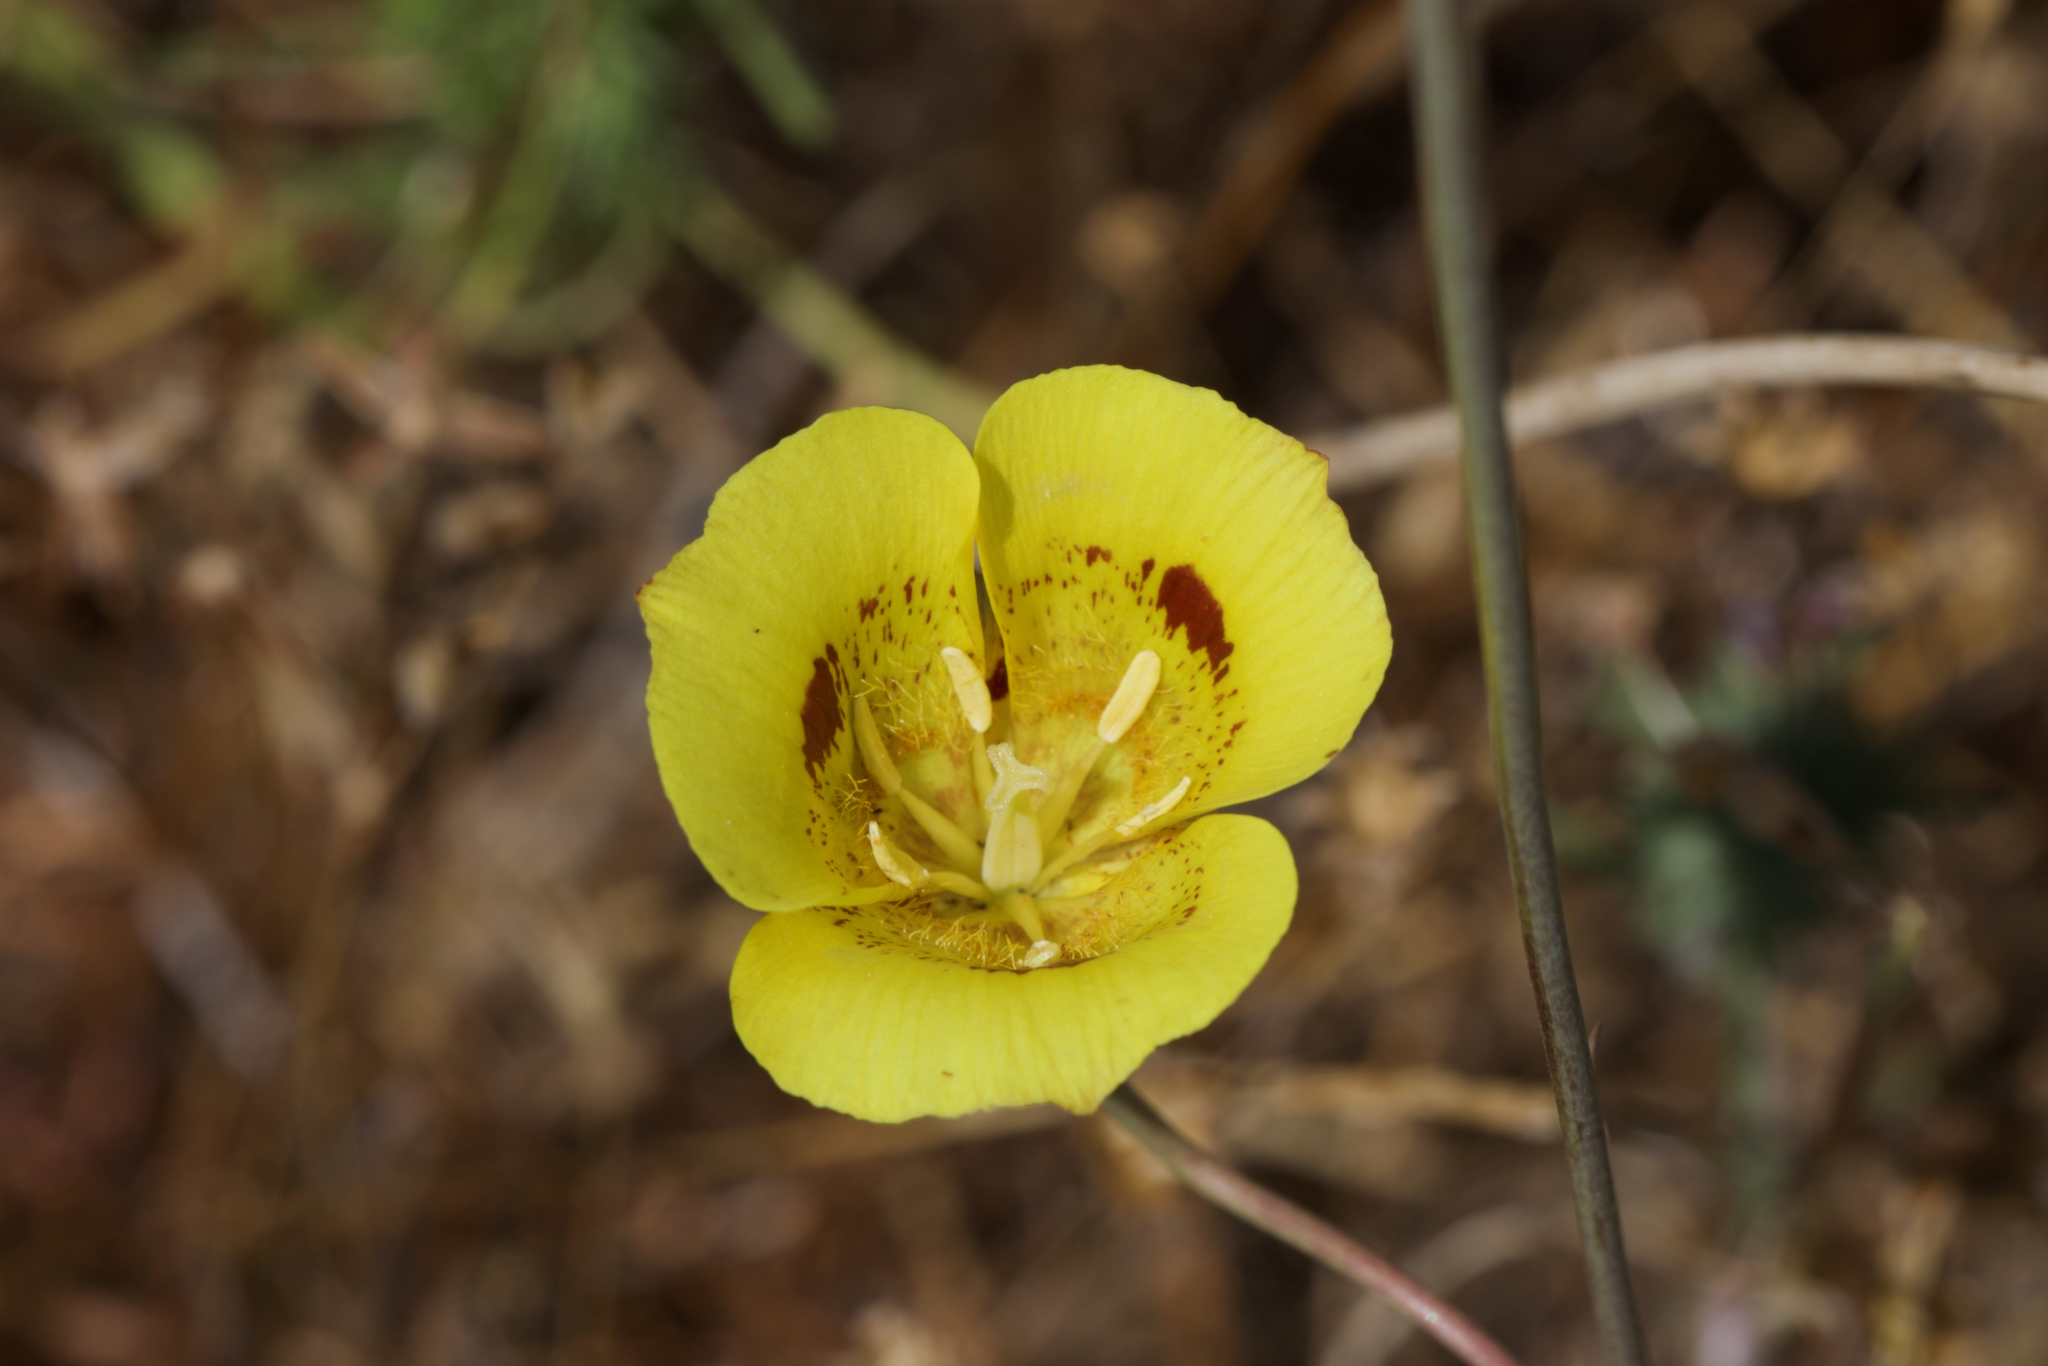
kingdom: Plantae
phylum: Tracheophyta
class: Liliopsida
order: Liliales
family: Liliaceae
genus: Calochortus
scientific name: Calochortus luteus
